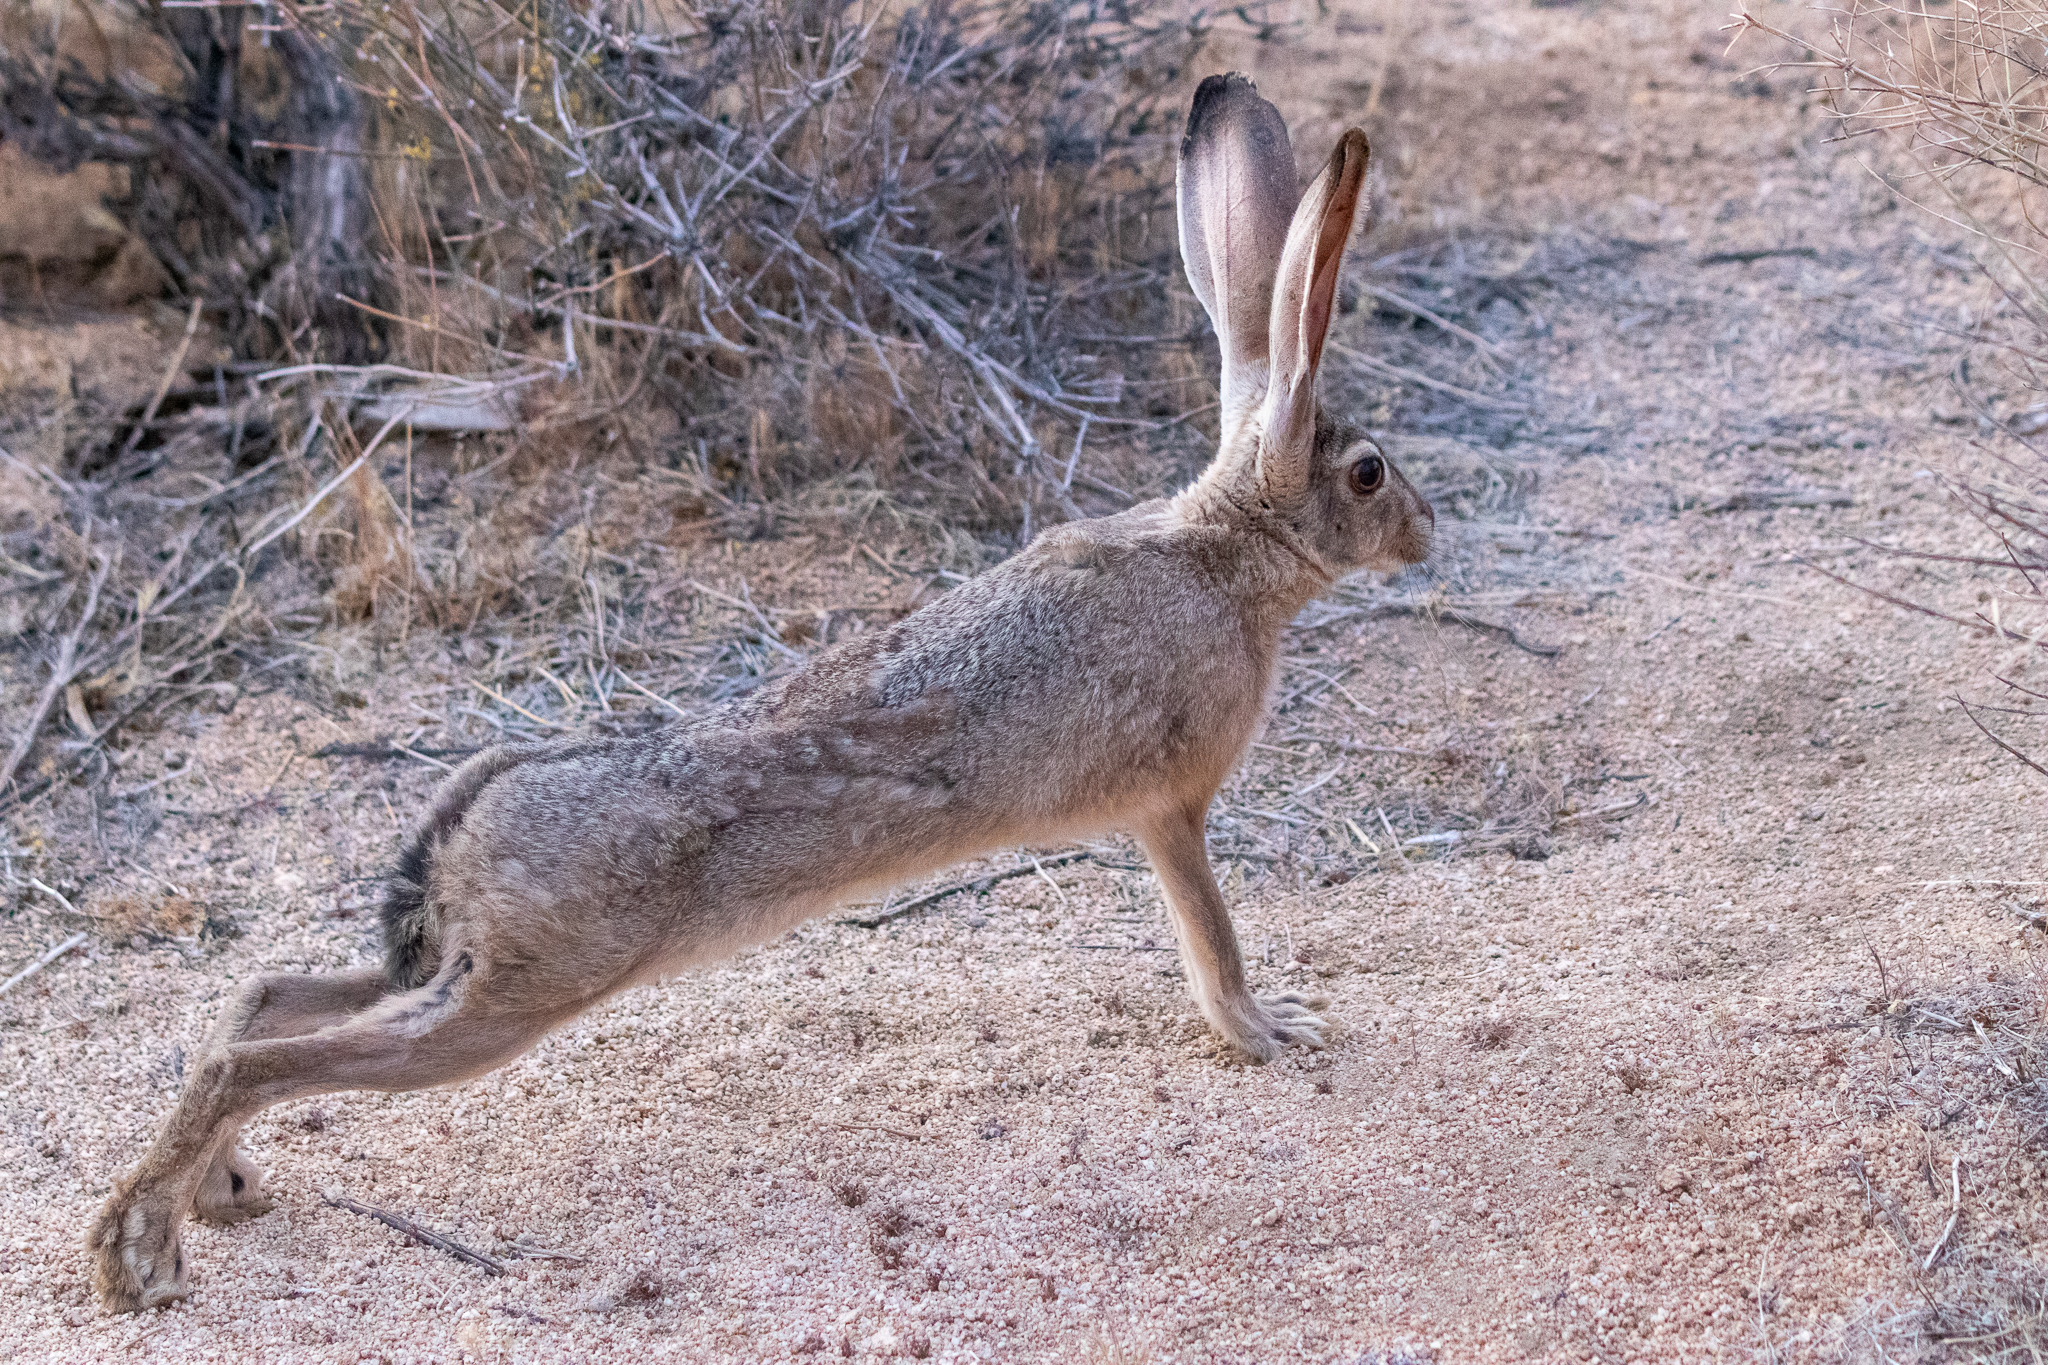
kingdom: Animalia
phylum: Chordata
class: Mammalia
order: Lagomorpha
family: Leporidae
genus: Lepus
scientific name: Lepus californicus
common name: Black-tailed jackrabbit
